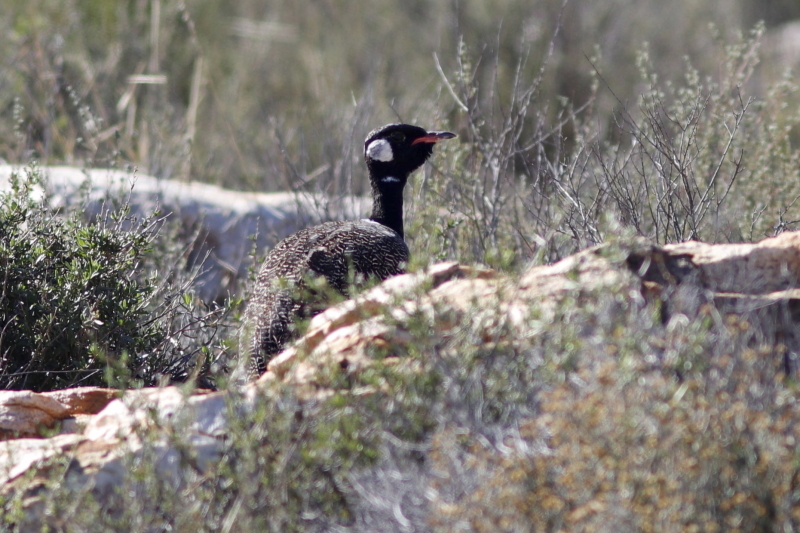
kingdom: Animalia
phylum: Chordata
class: Aves
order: Otidiformes
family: Otididae
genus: Afrotis
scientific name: Afrotis afra
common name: Southern black korhaan
